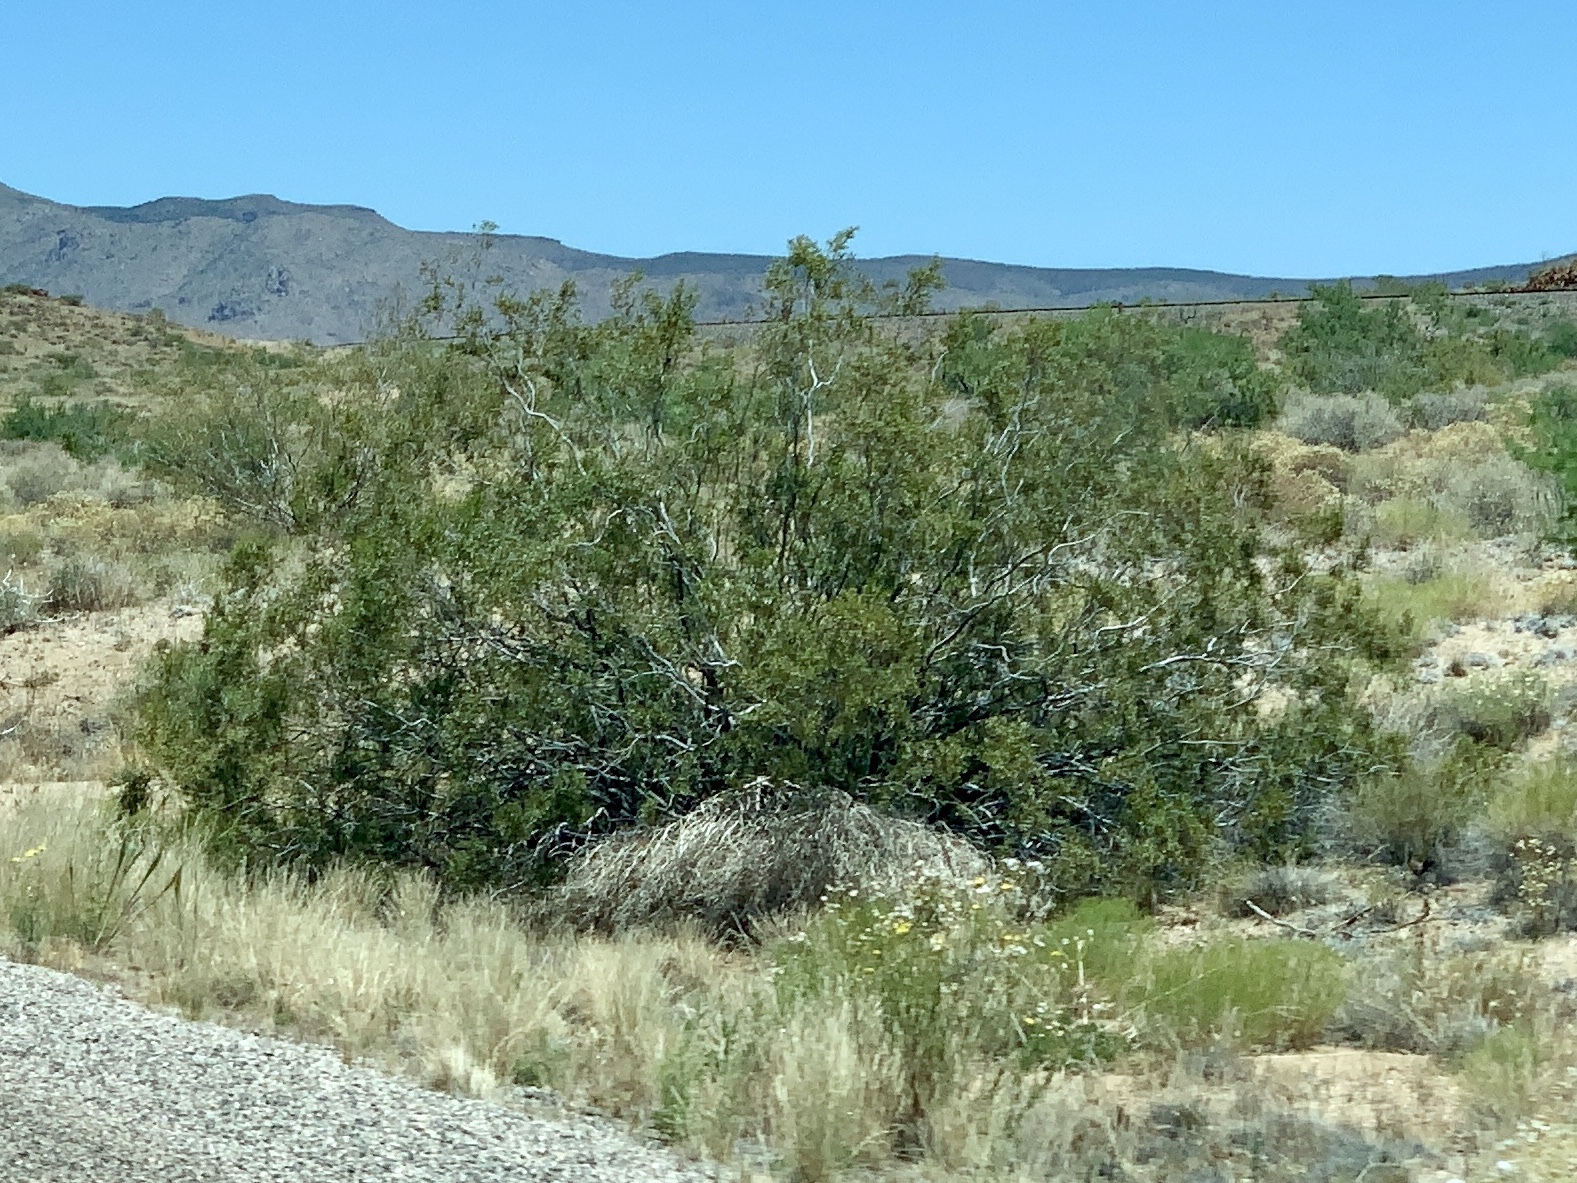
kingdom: Plantae
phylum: Tracheophyta
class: Magnoliopsida
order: Zygophyllales
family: Zygophyllaceae
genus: Larrea
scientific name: Larrea tridentata
